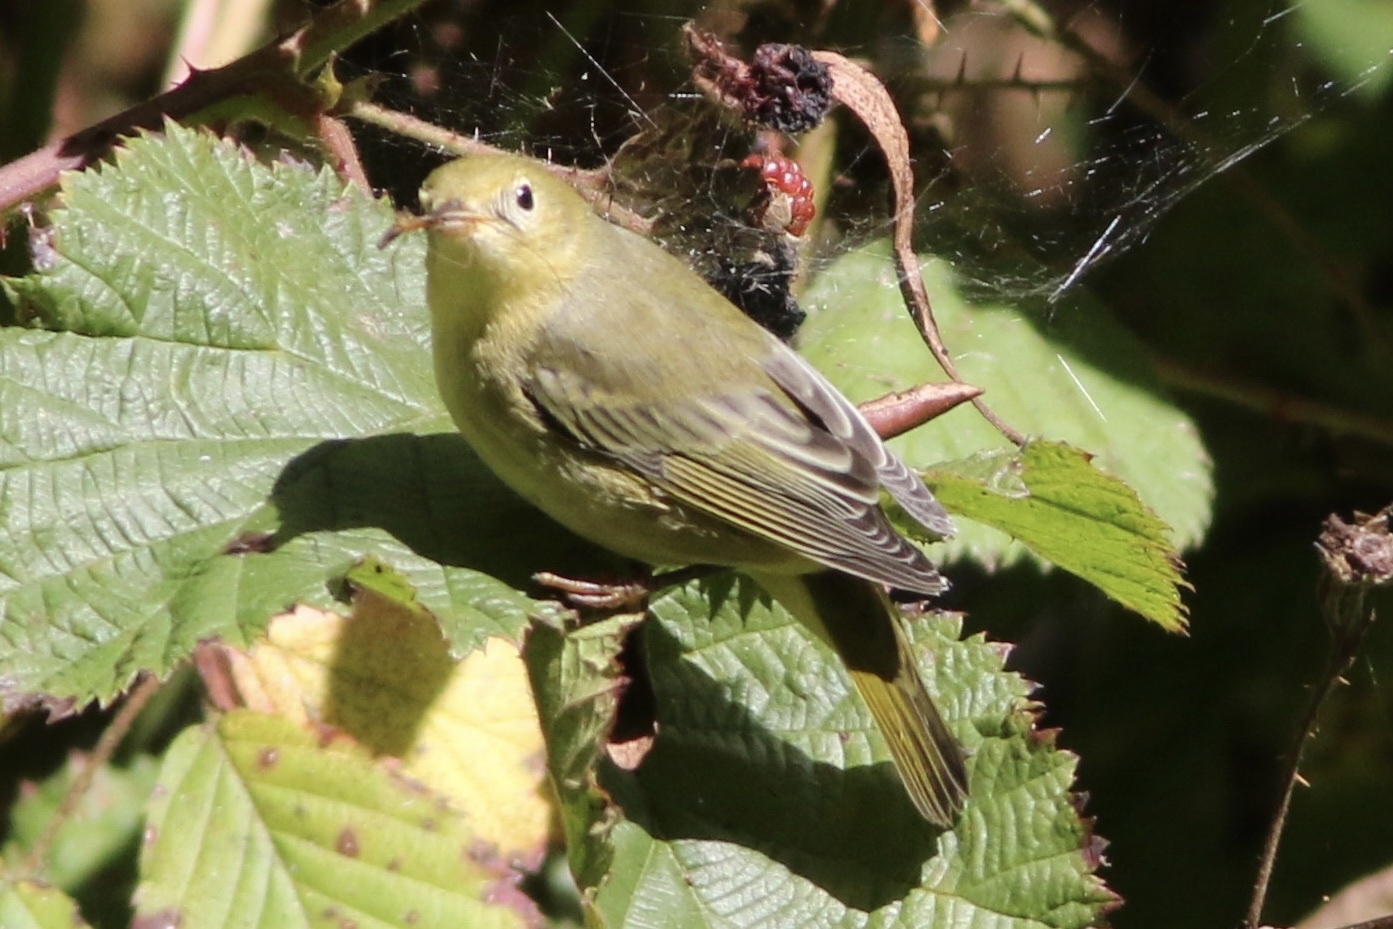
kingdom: Animalia
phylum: Chordata
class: Aves
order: Passeriformes
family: Parulidae
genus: Setophaga
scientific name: Setophaga petechia
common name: Yellow warbler
